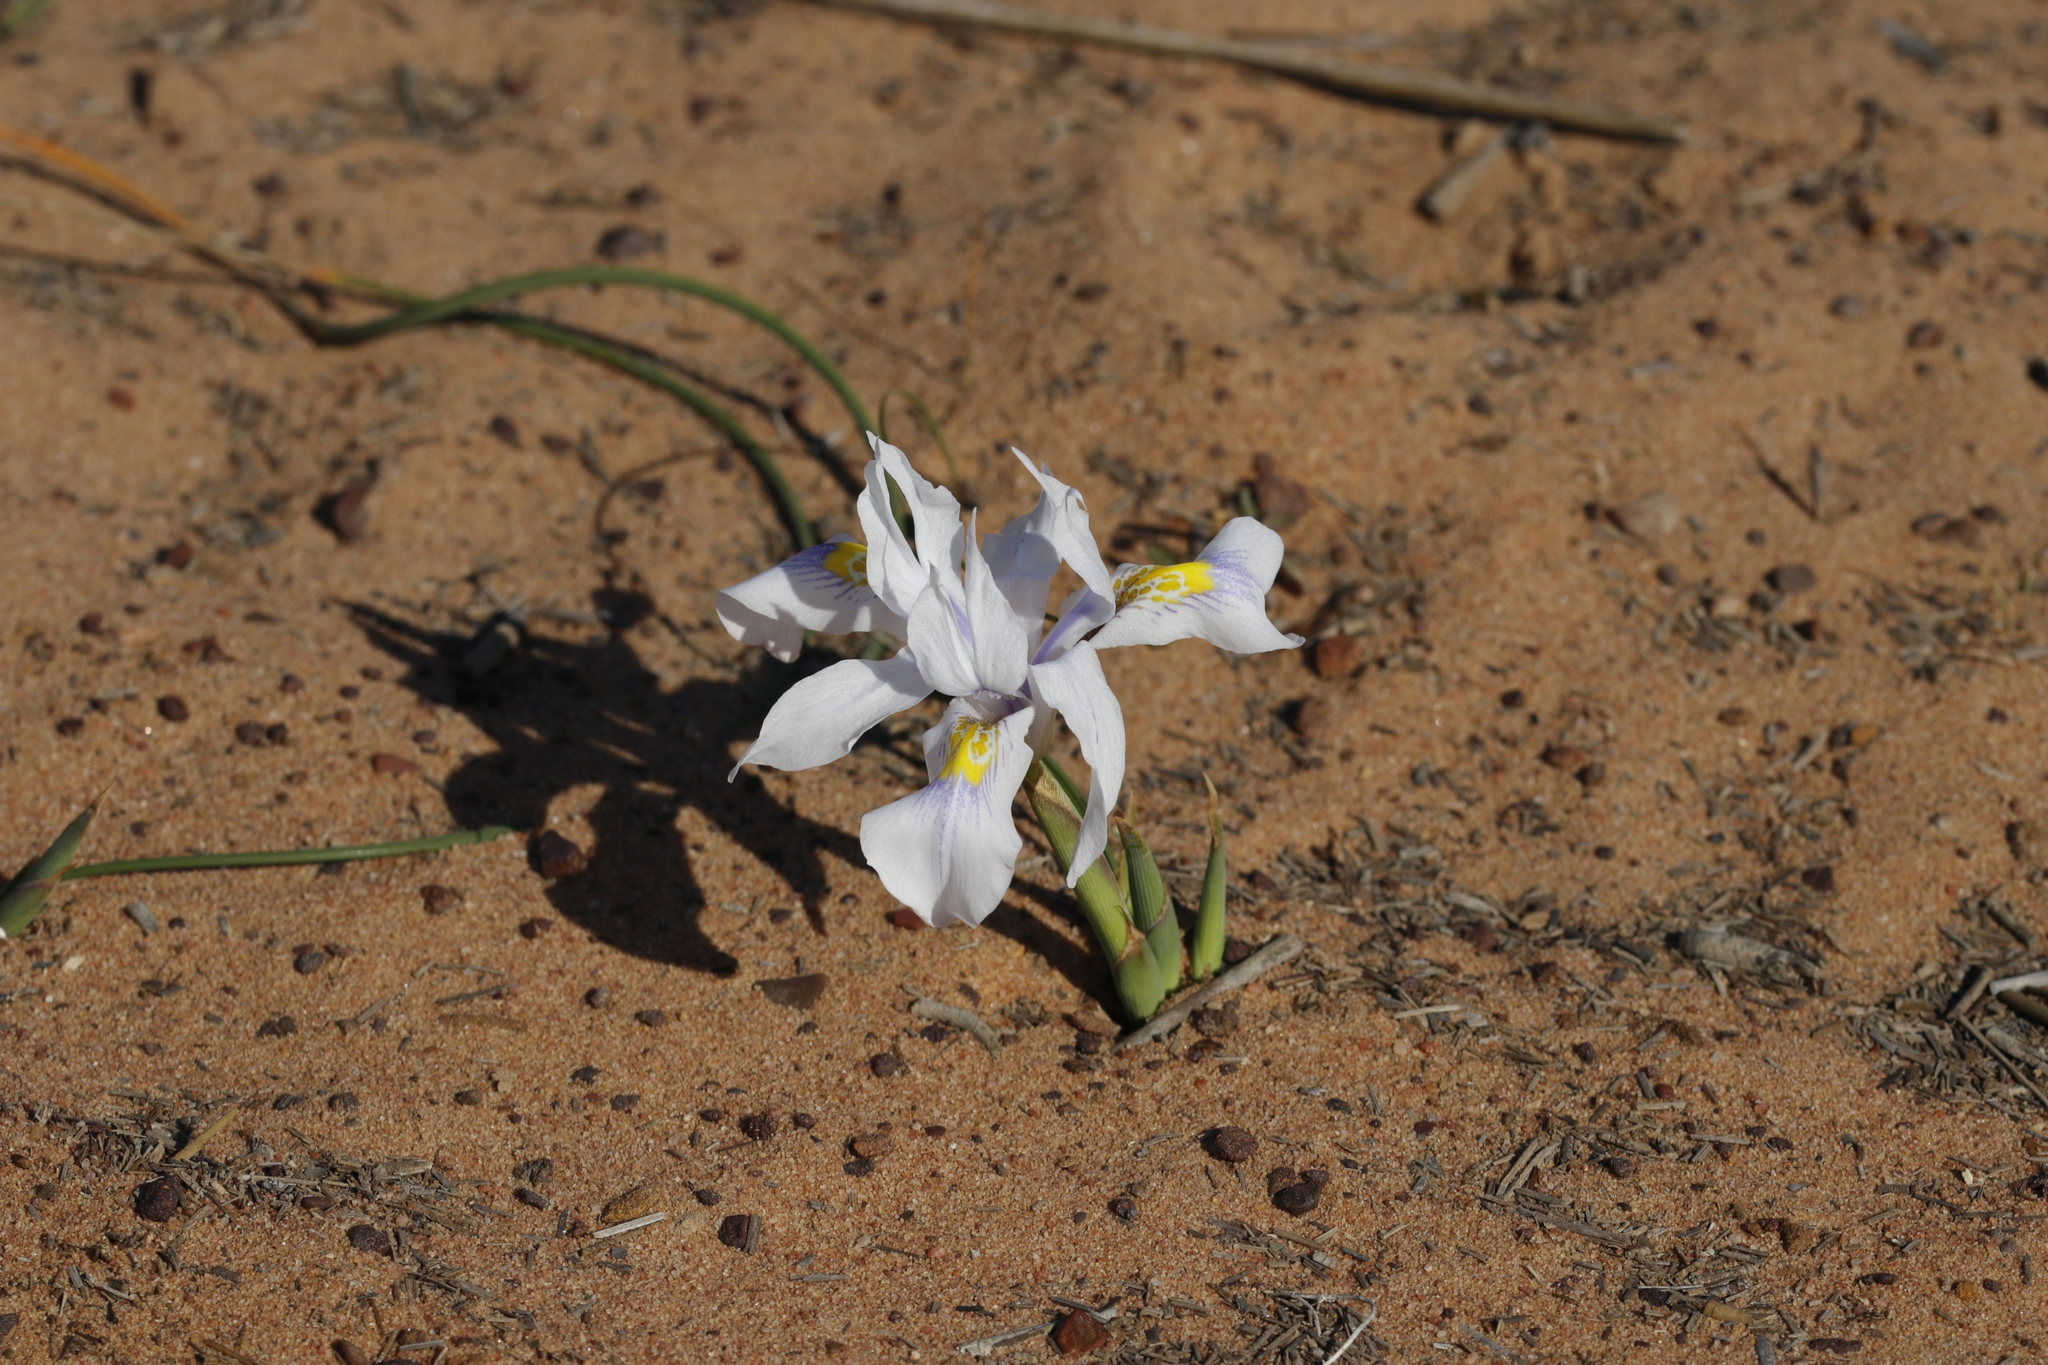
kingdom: Plantae
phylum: Tracheophyta
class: Liliopsida
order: Asparagales
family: Iridaceae
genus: Moraea
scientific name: Moraea fugax
